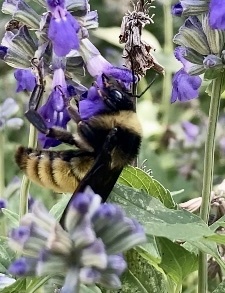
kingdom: Animalia
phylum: Arthropoda
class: Insecta
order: Hymenoptera
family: Apidae
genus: Bombus
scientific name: Bombus pensylvanicus
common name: Bumble bee
